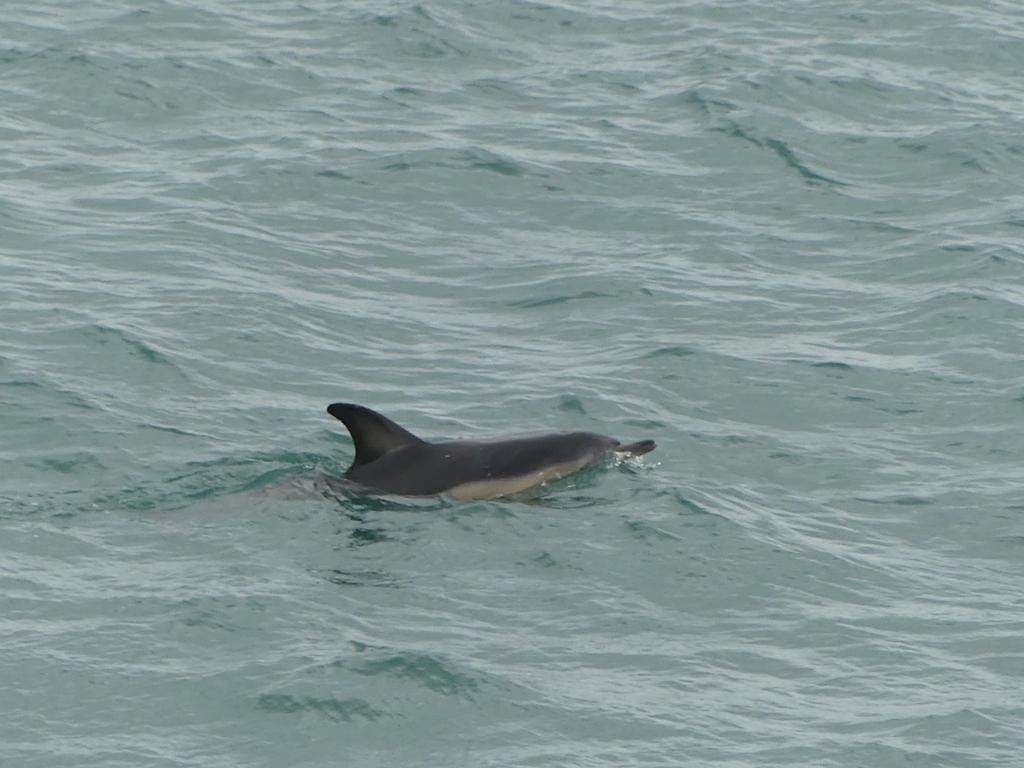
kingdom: Animalia
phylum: Chordata
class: Mammalia
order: Cetacea
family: Delphinidae
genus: Delphinus
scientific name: Delphinus delphis
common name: Common dolphin
